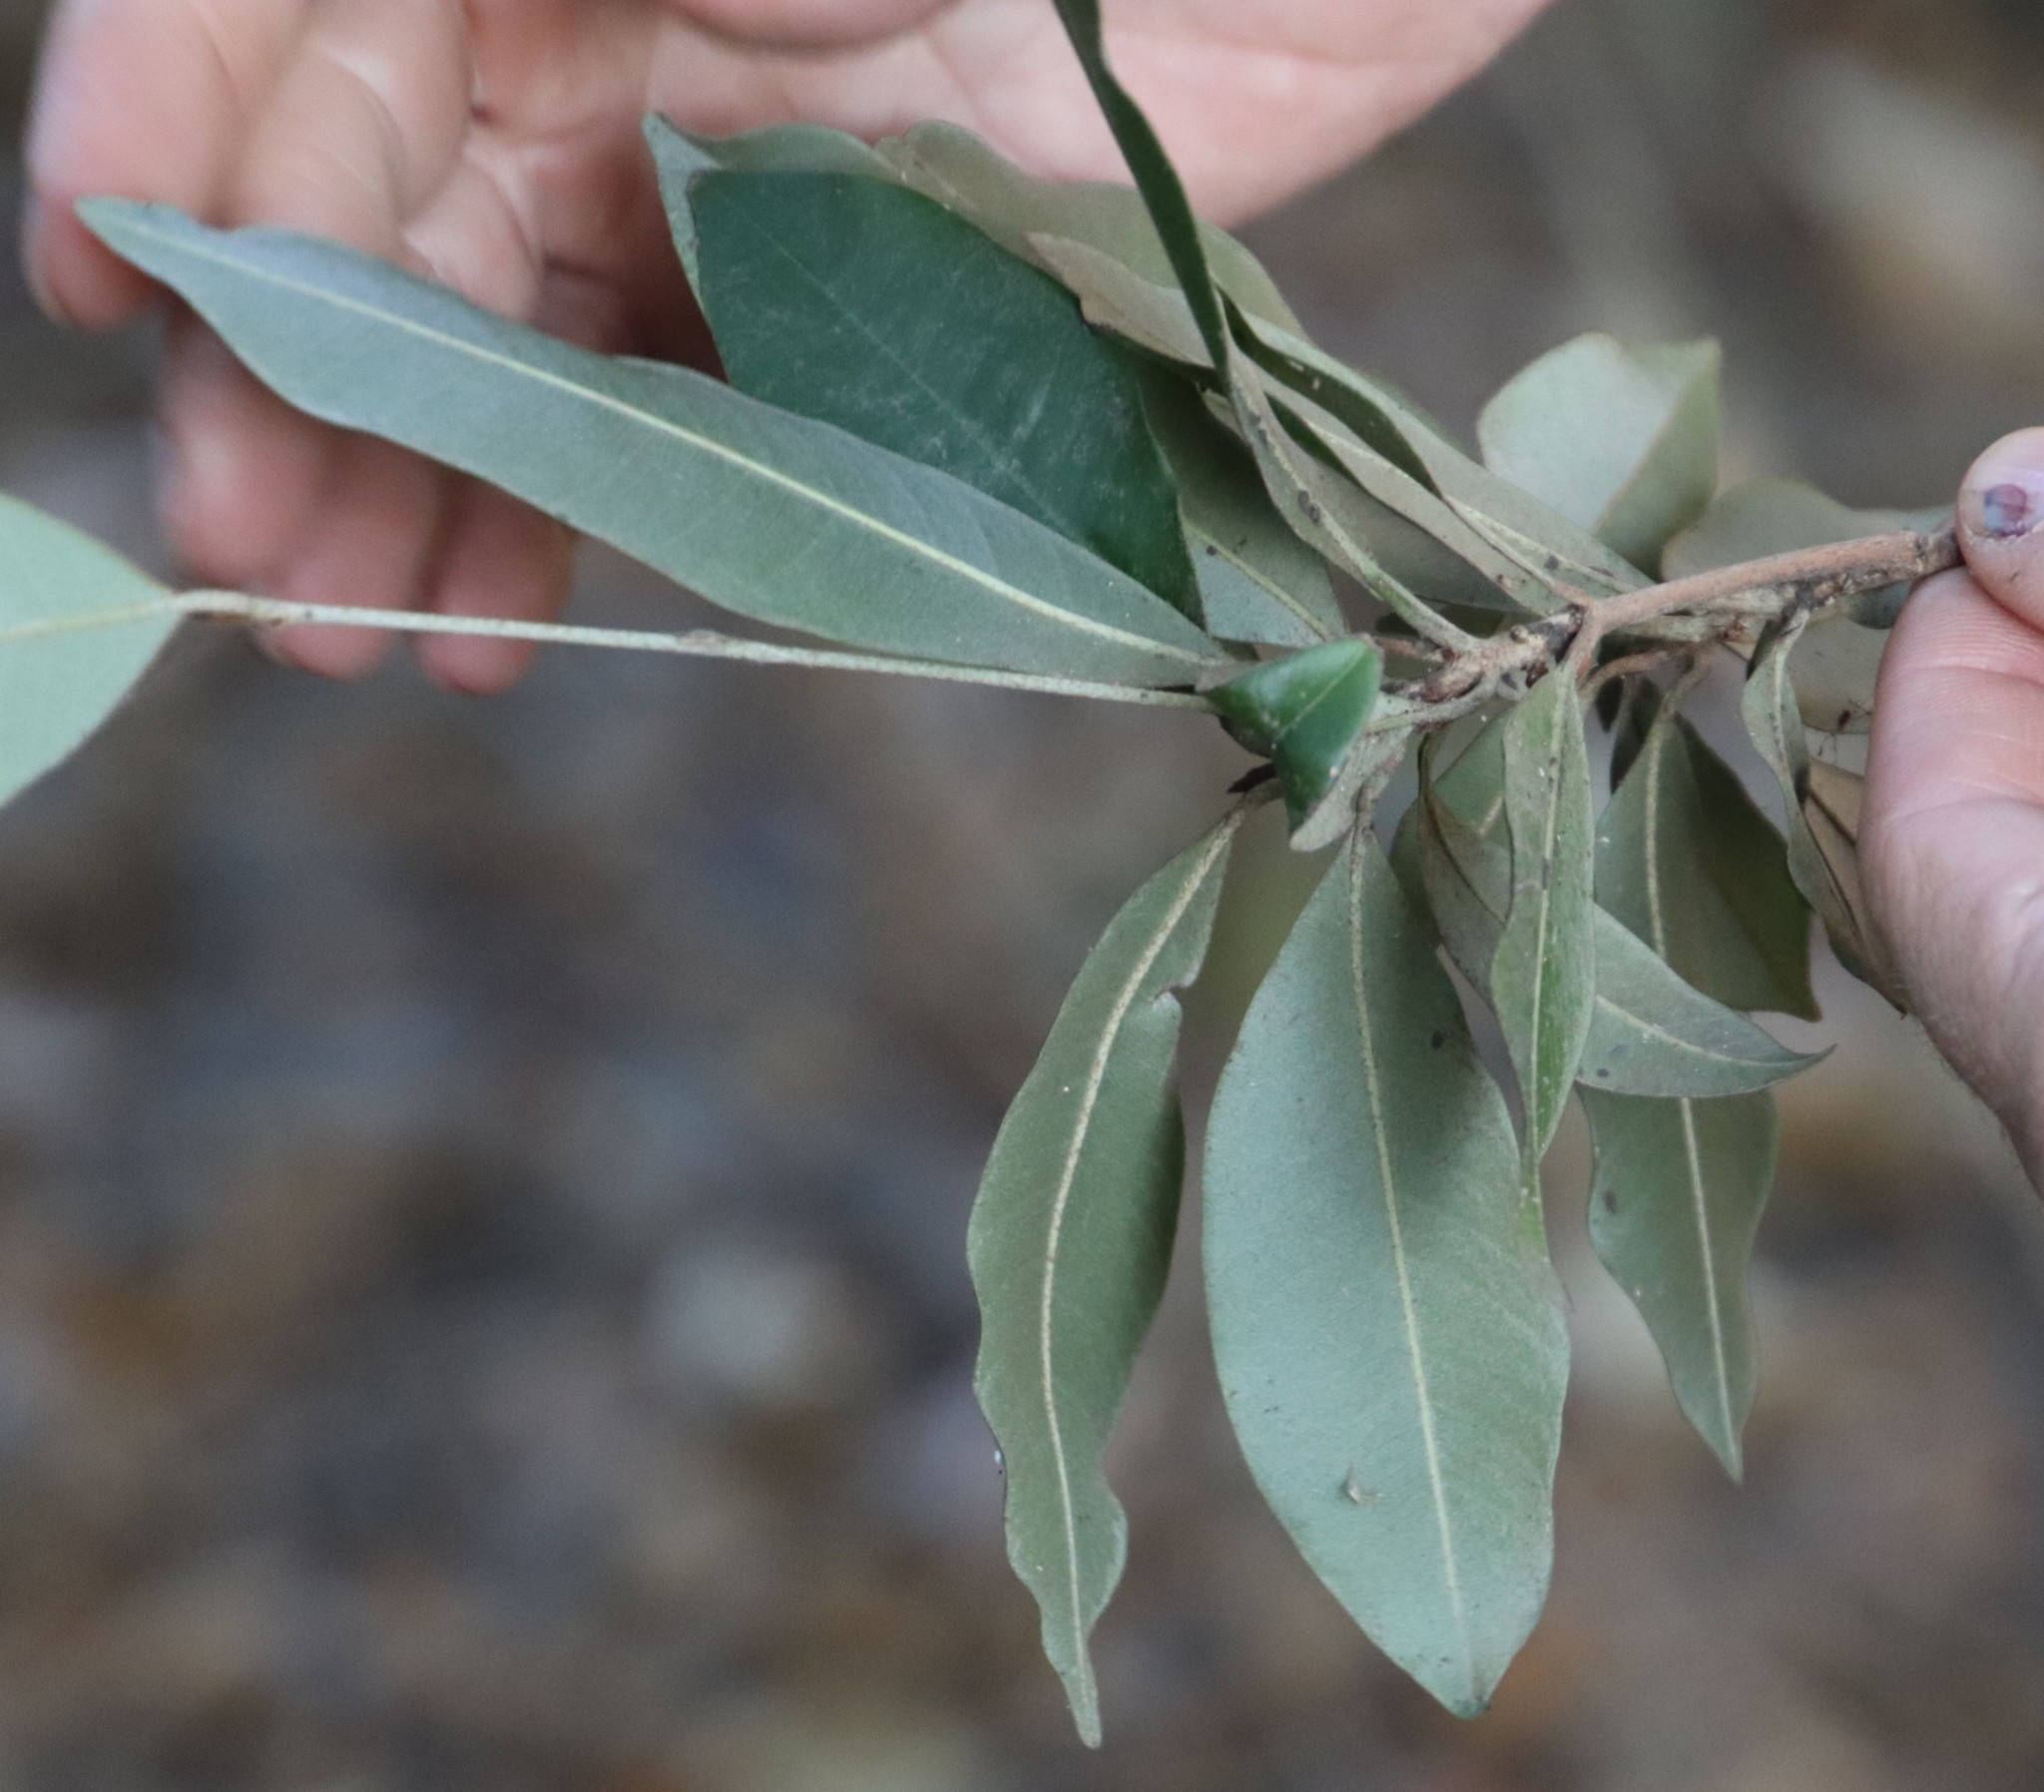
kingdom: Plantae
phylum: Tracheophyta
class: Magnoliopsida
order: Ericales
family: Sapotaceae
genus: Englerophytum
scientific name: Englerophytum natalense
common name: Silver-leaved milkplum
